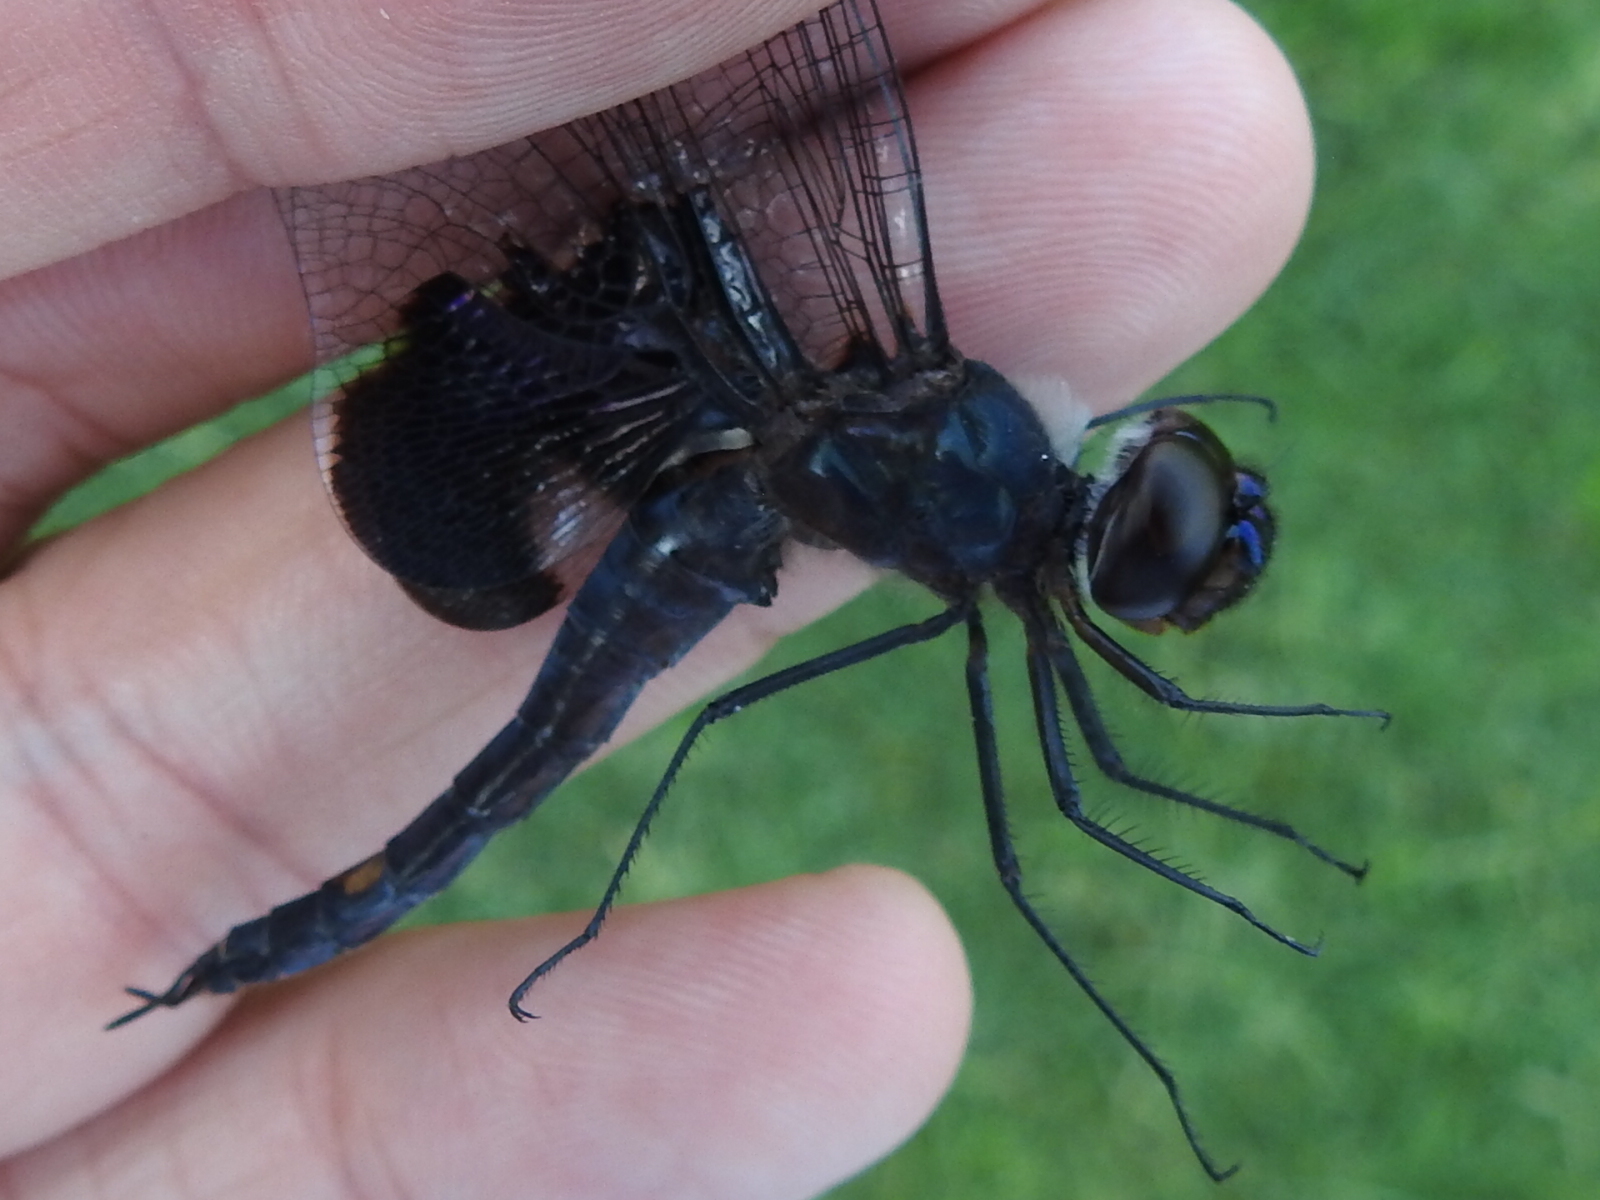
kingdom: Animalia
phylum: Arthropoda
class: Insecta
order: Odonata
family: Libellulidae
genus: Tramea
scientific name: Tramea lacerata
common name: Black saddlebags
